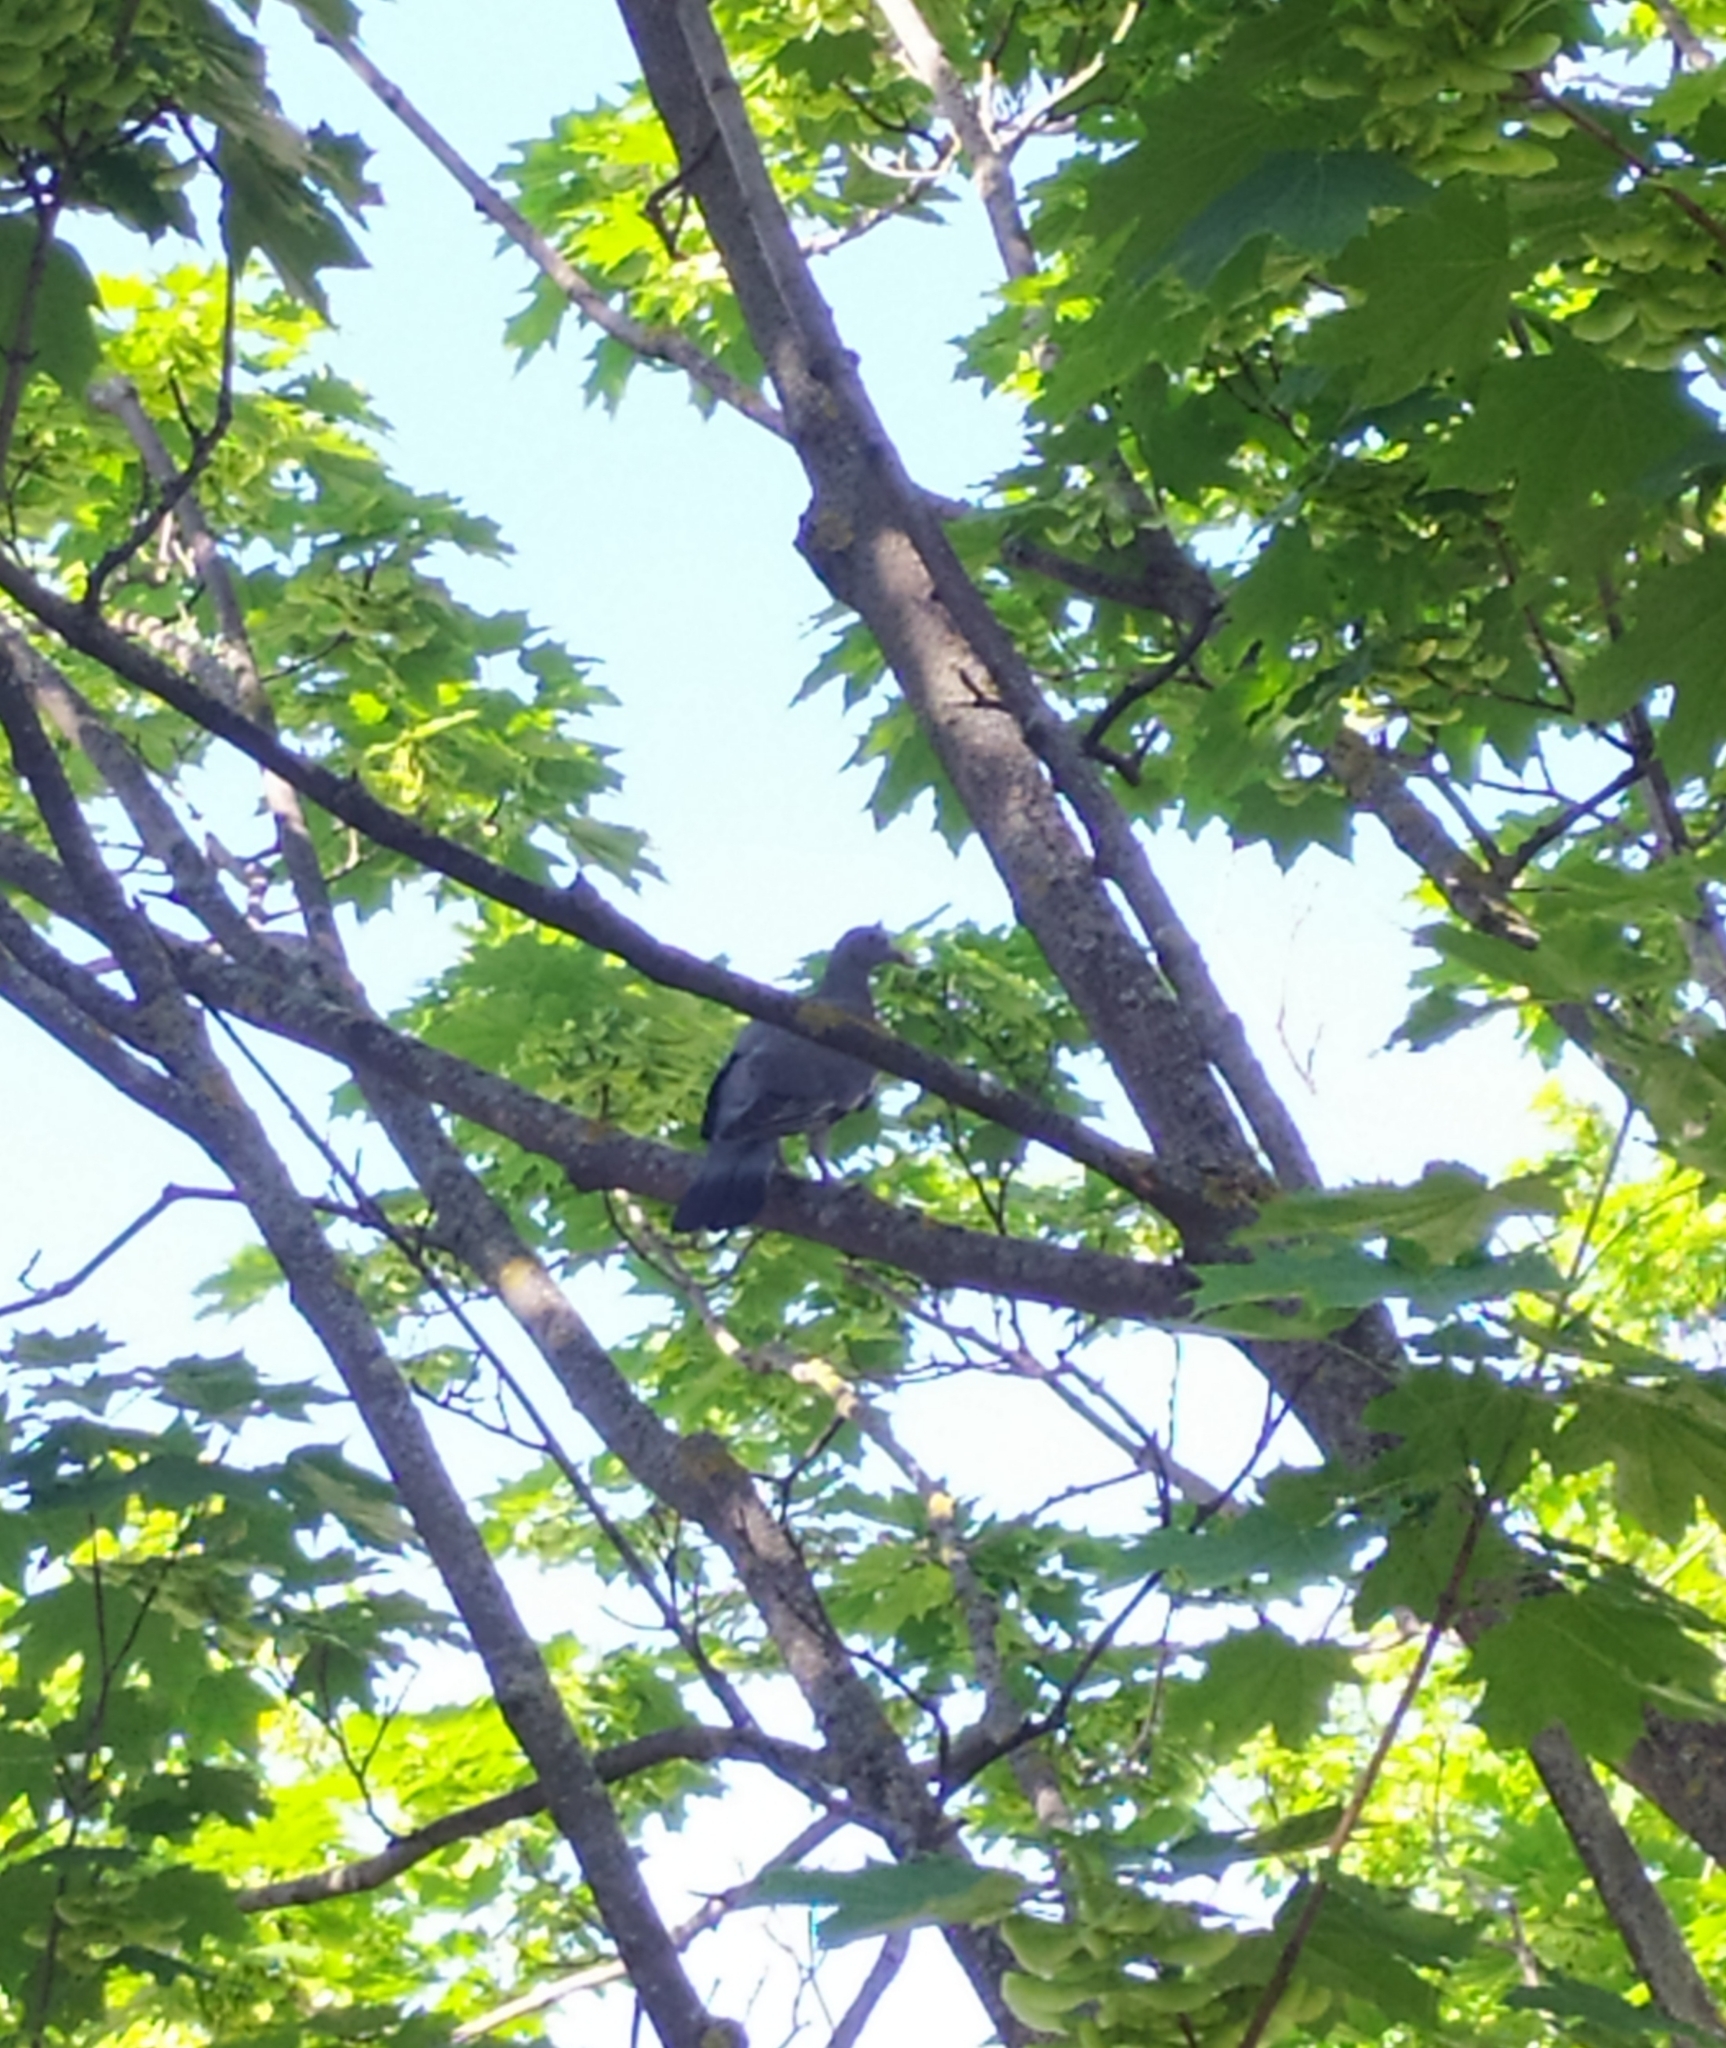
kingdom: Animalia
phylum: Chordata
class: Aves
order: Columbiformes
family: Columbidae
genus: Columba
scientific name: Columba palumbus
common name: Common wood pigeon
